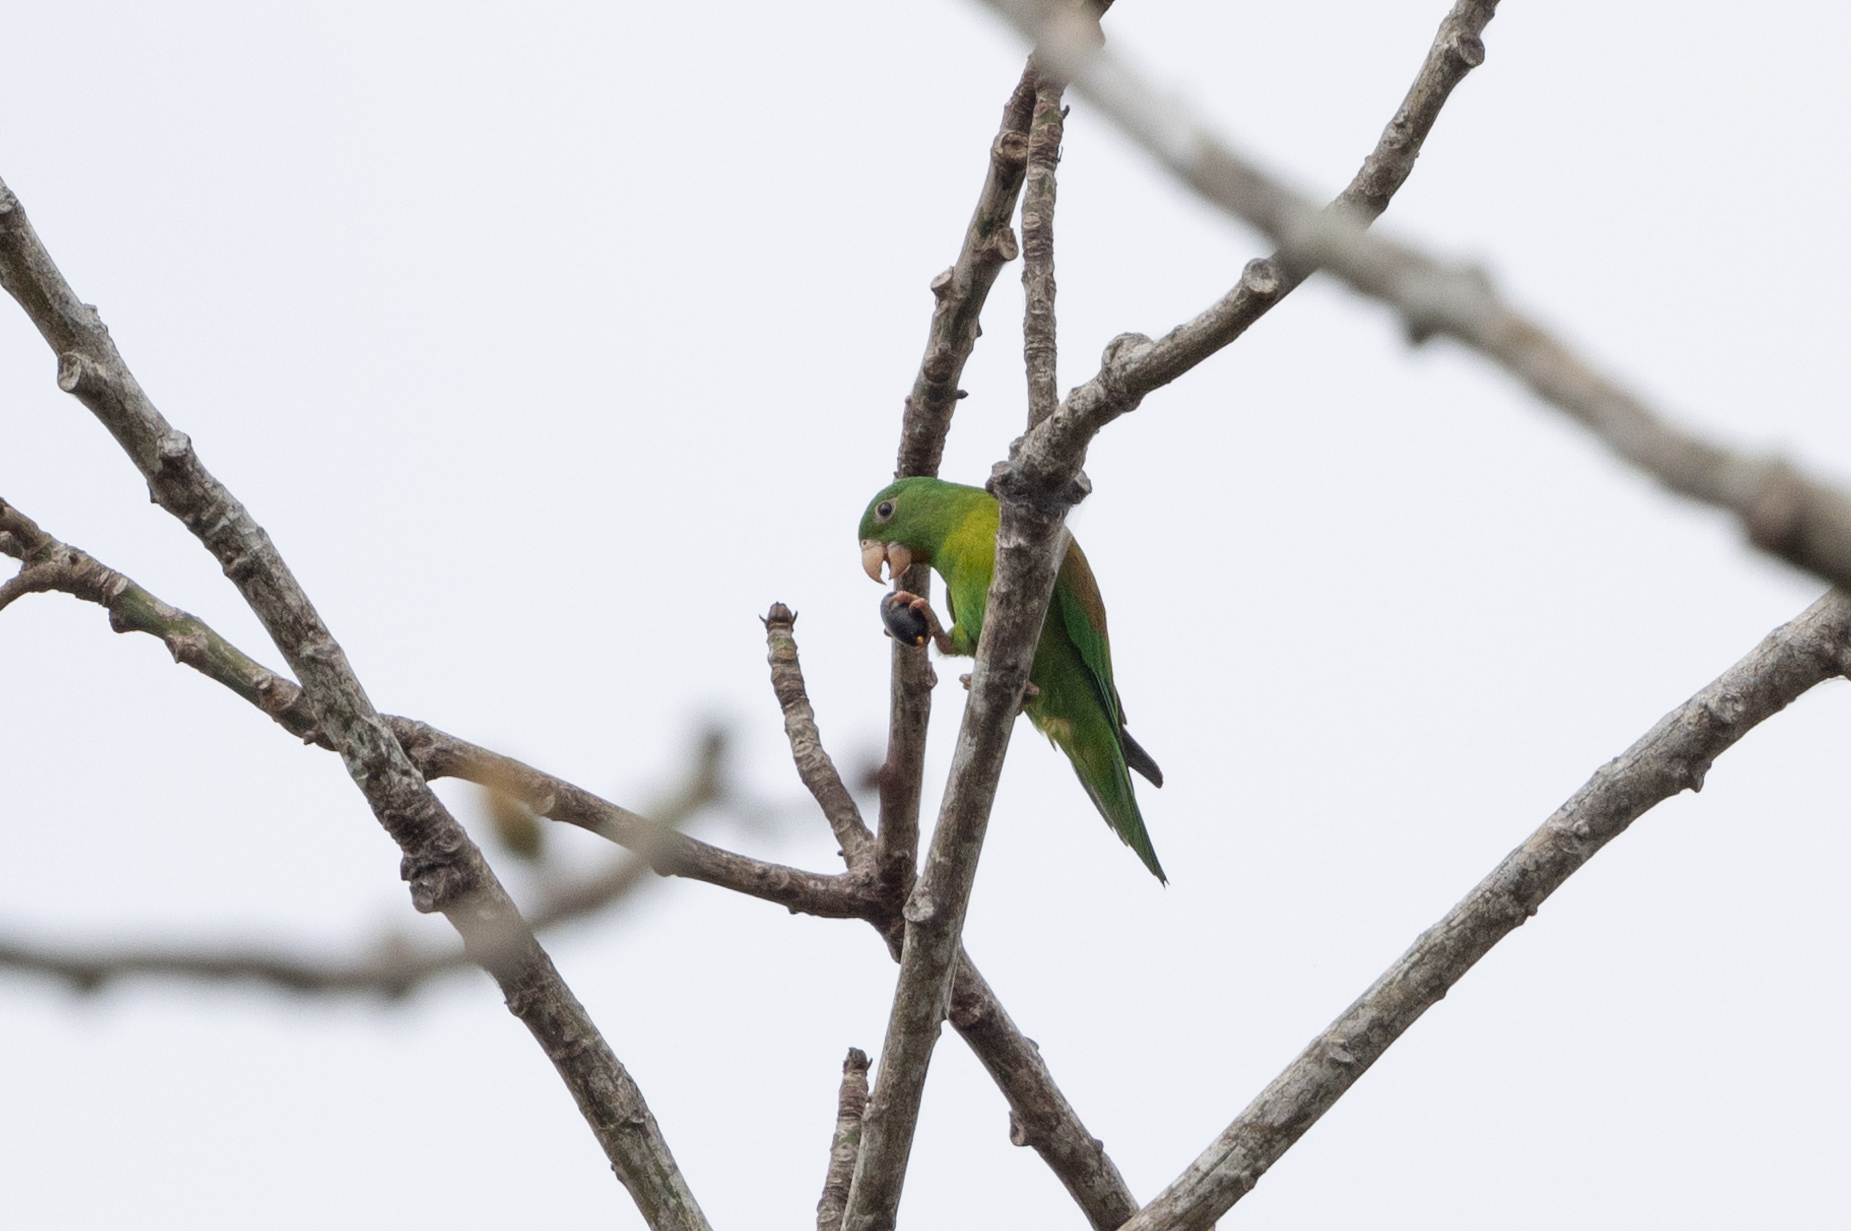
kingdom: Animalia
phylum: Chordata
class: Aves
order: Psittaciformes
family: Psittacidae
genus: Brotogeris
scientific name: Brotogeris jugularis
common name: Orange-chinned parakeet
